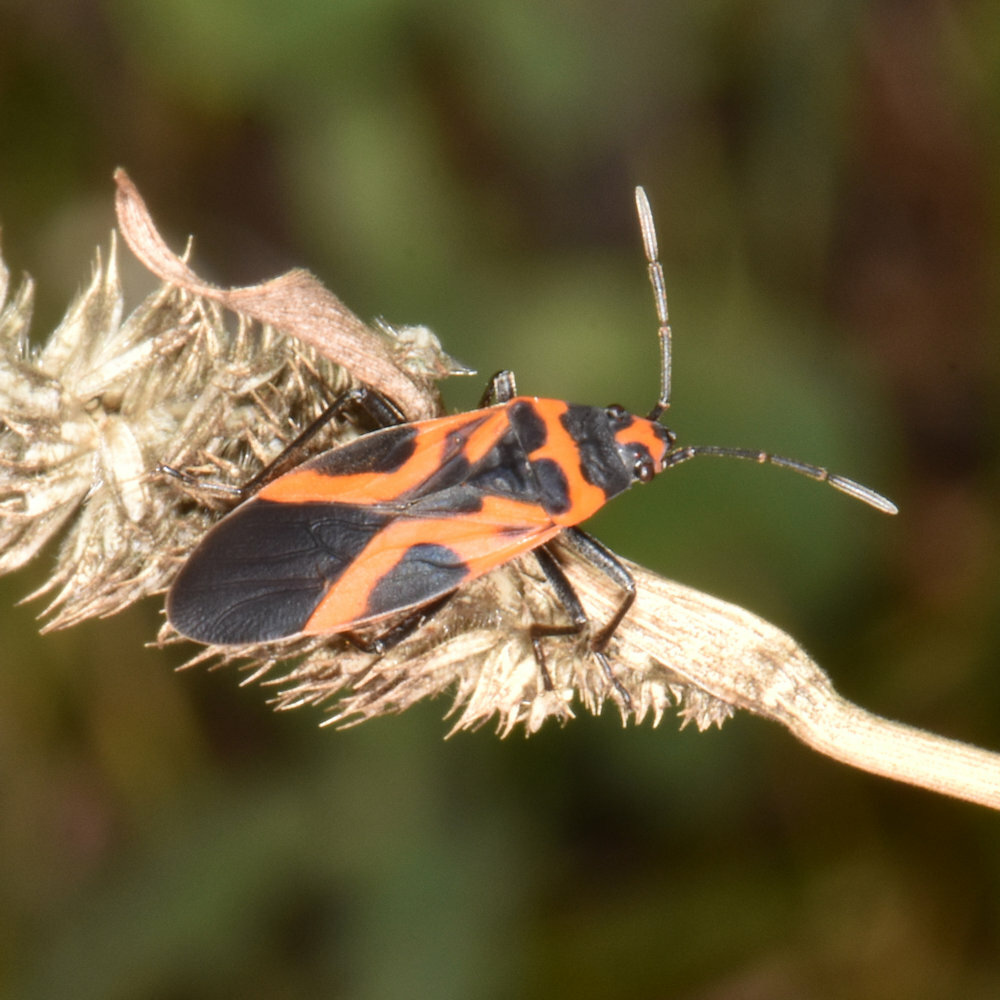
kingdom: Animalia
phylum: Arthropoda
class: Insecta
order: Hemiptera
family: Lygaeidae
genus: Lygaeus
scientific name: Lygaeus turcicus
